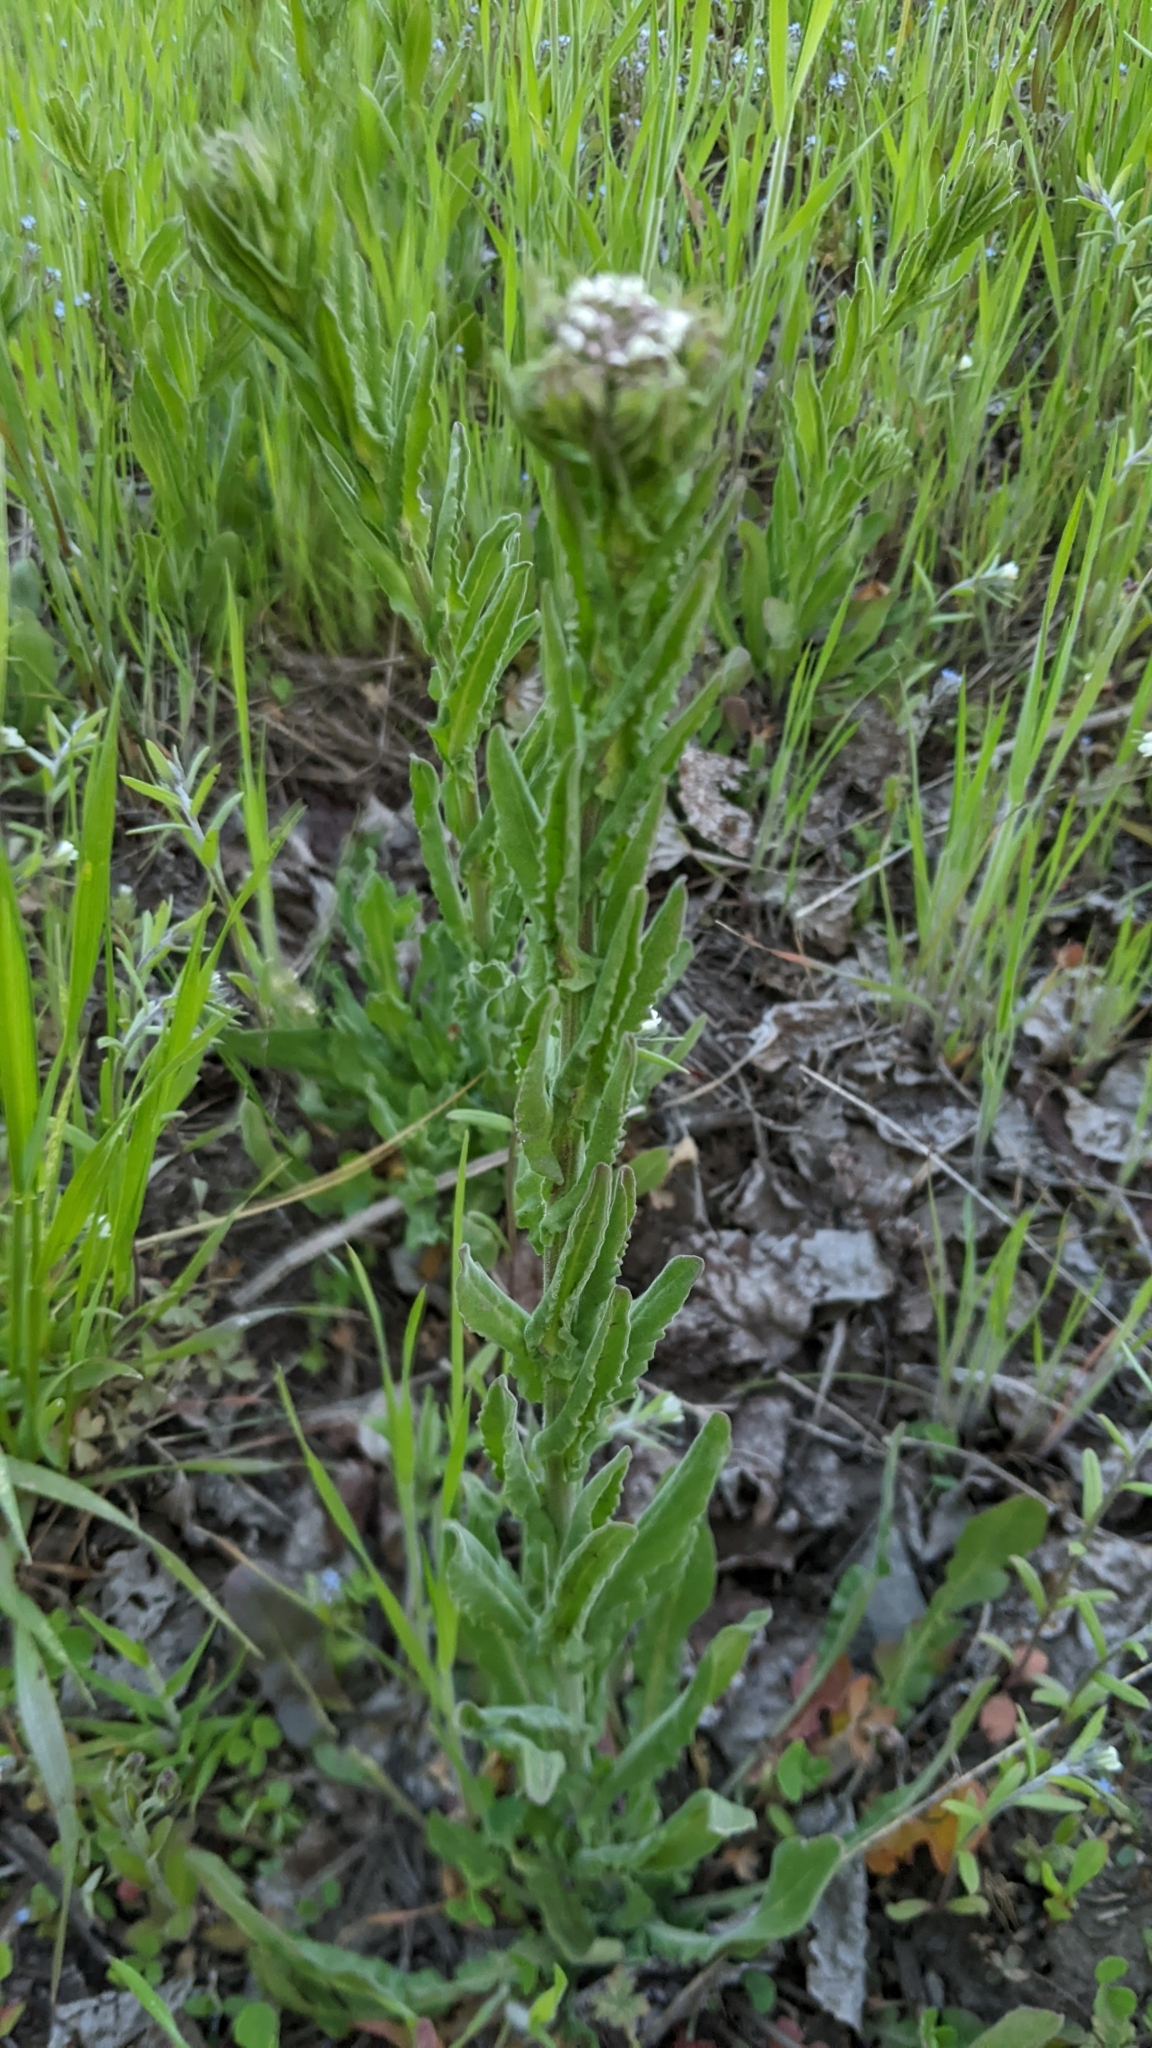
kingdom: Plantae
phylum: Tracheophyta
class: Magnoliopsida
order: Brassicales
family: Brassicaceae
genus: Lepidium
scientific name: Lepidium campestre
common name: Field pepperwort
